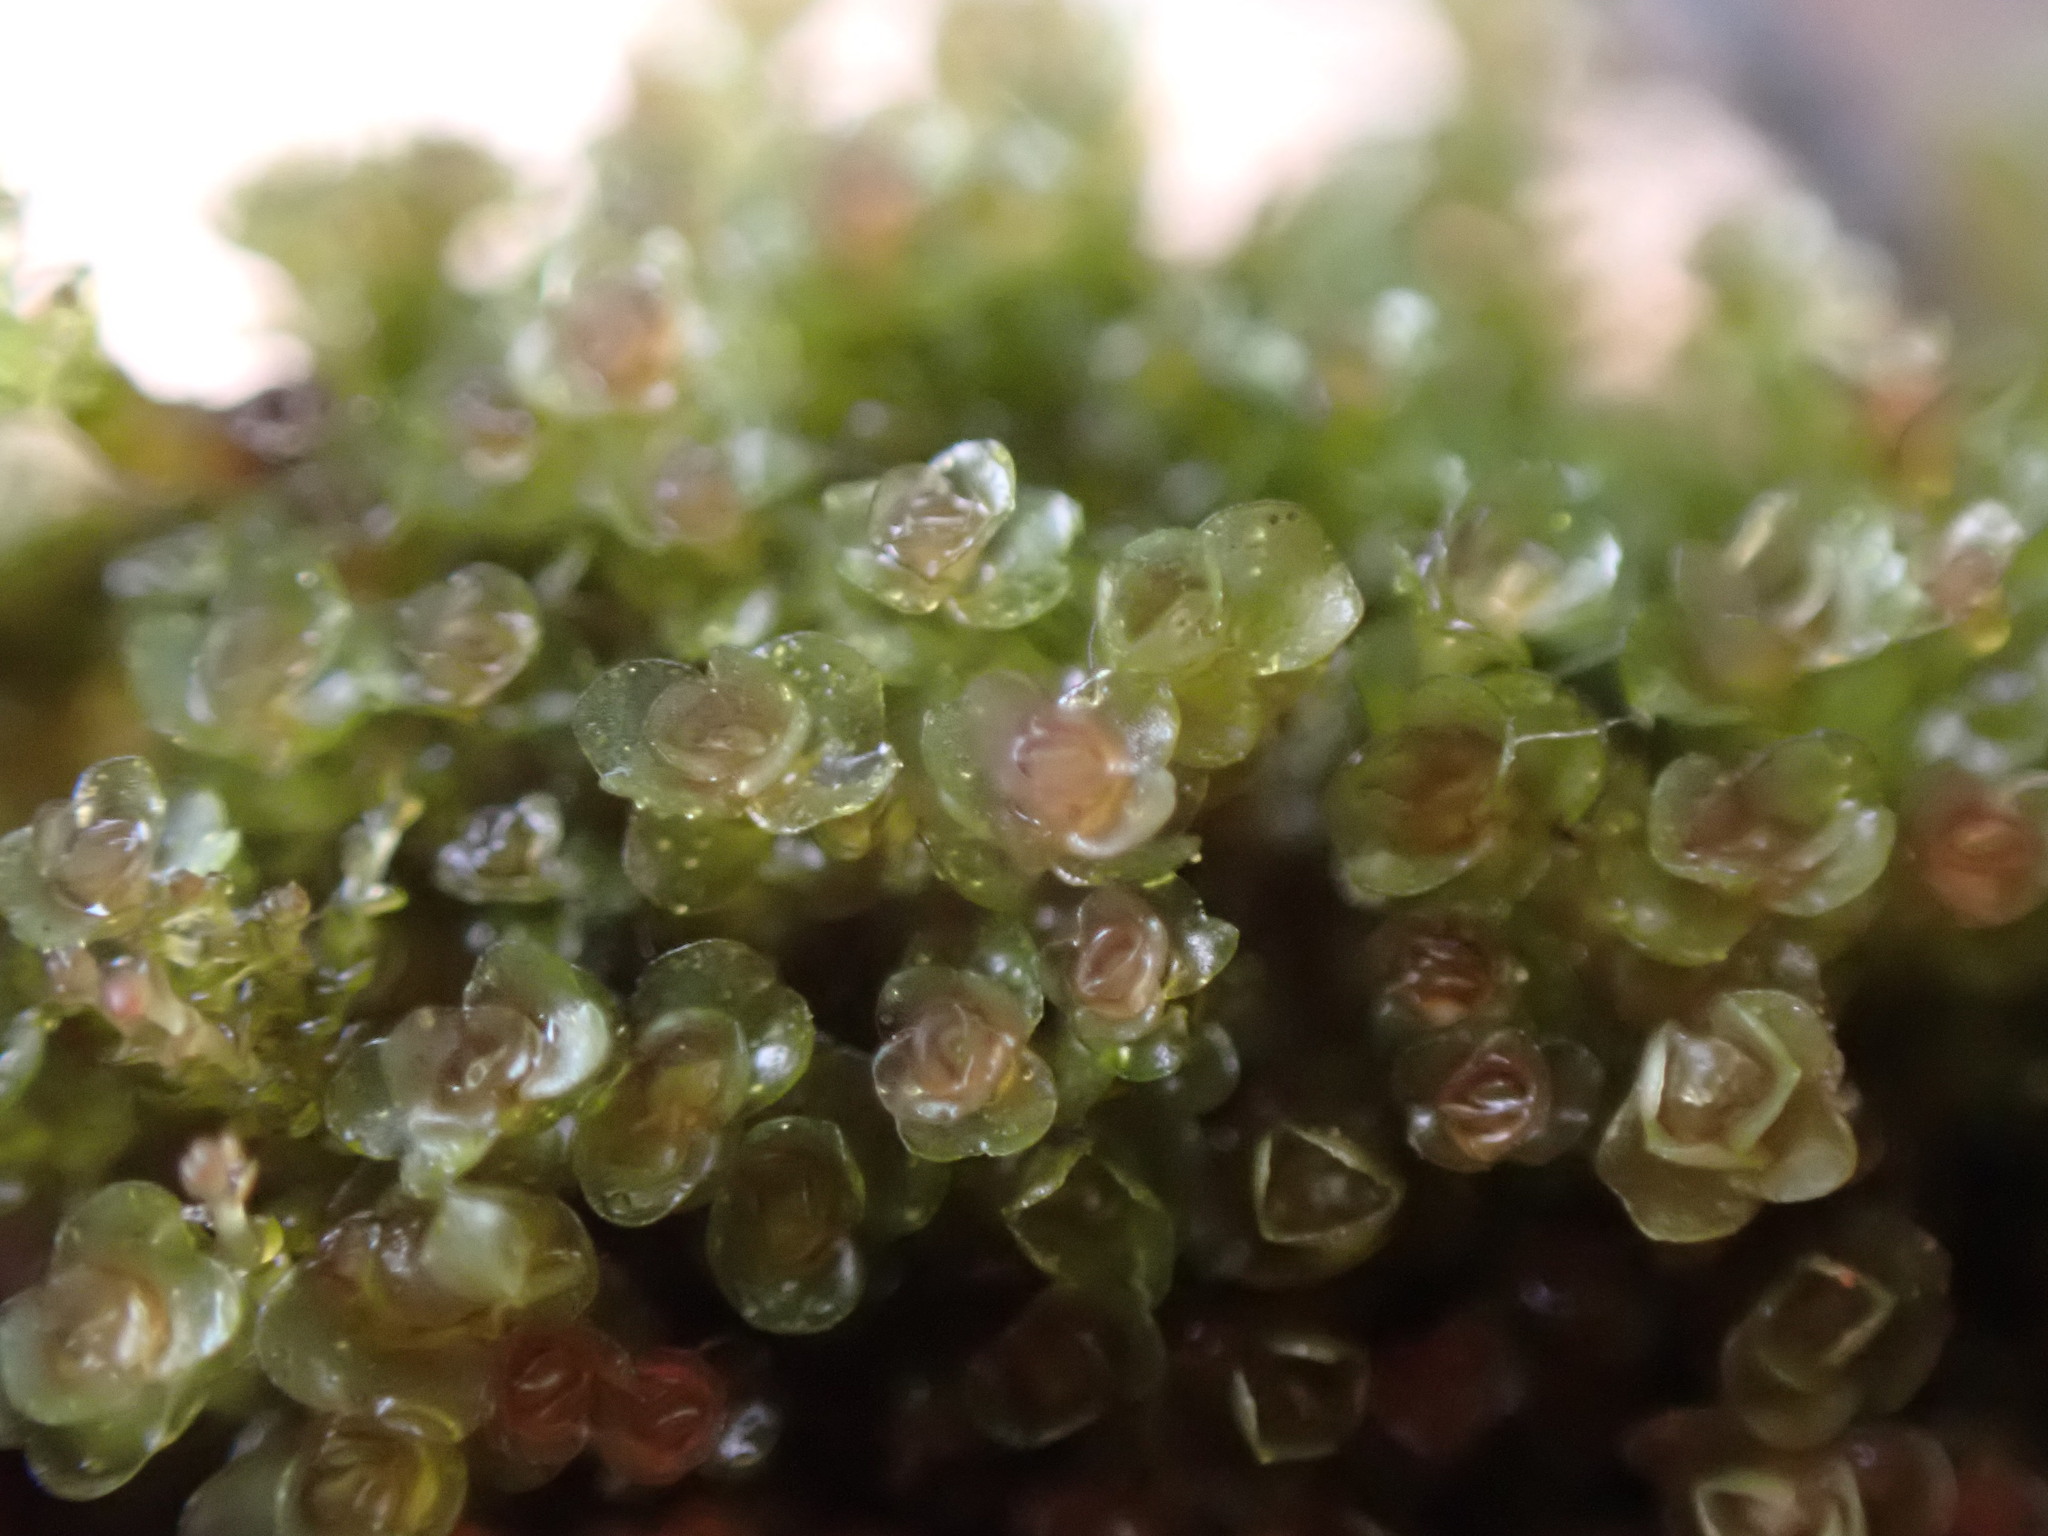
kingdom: Plantae
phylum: Marchantiophyta
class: Jungermanniopsida
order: Jungermanniales
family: Gymnomitriaceae
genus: Marsupella
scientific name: Marsupella emarginata
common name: Notched rustwort
